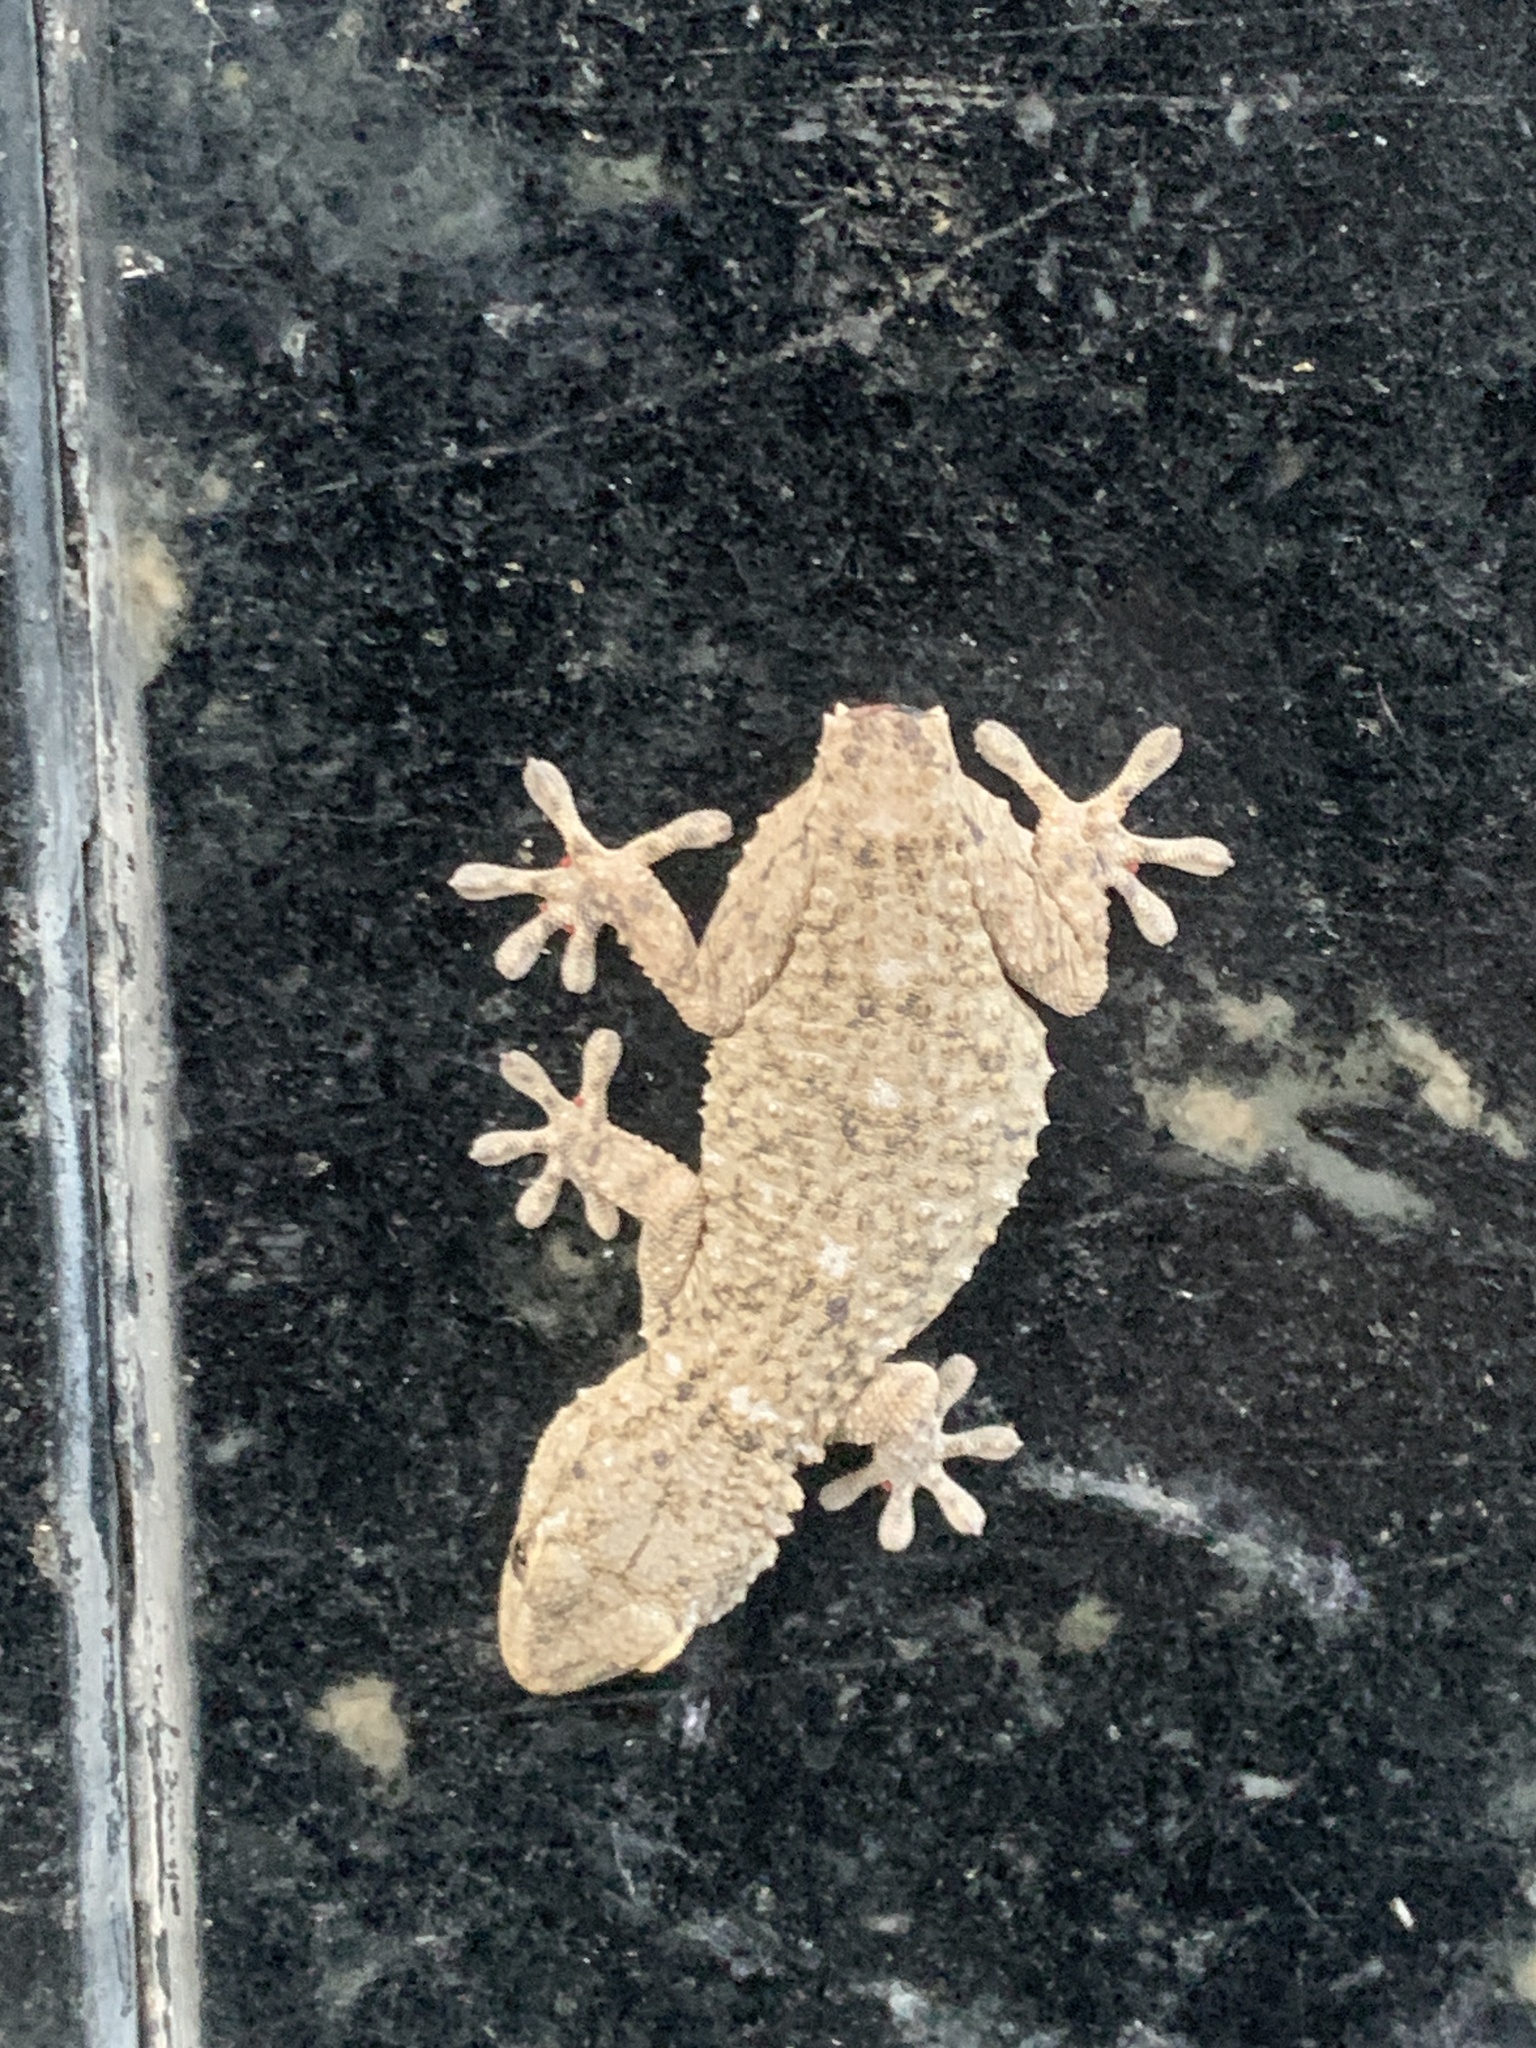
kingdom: Animalia
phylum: Chordata
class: Squamata
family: Phyllodactylidae
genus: Tarentola
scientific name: Tarentola mauritanica
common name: Moorish gecko
